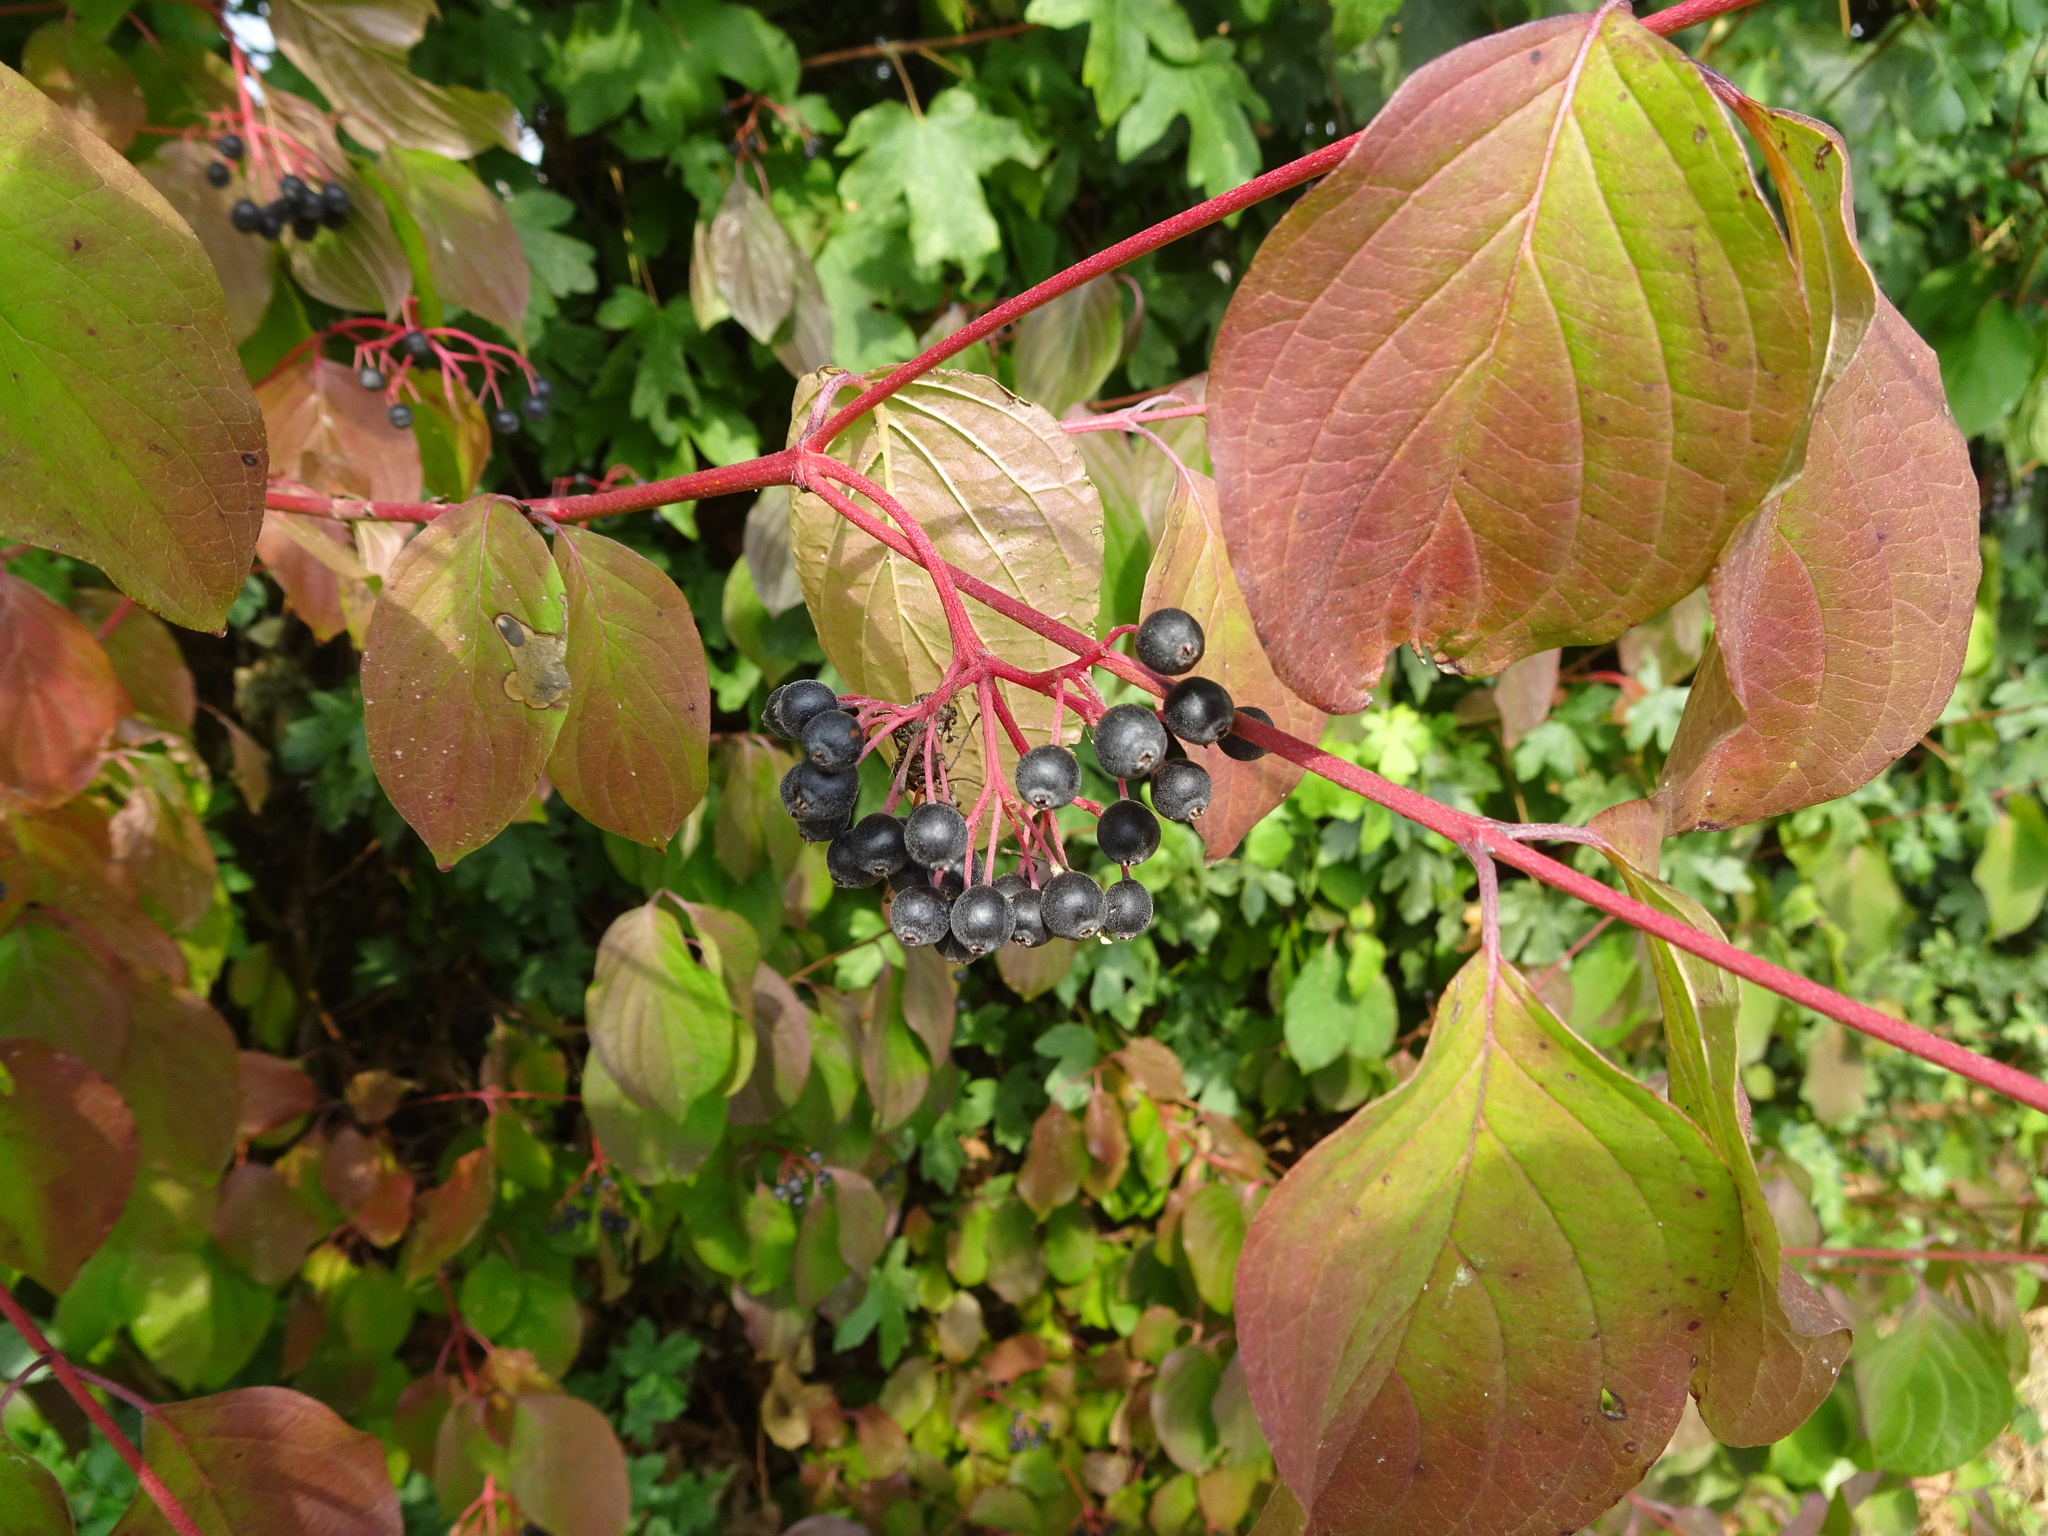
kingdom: Plantae
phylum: Tracheophyta
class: Magnoliopsida
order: Cornales
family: Cornaceae
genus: Cornus
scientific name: Cornus sanguinea
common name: Dogwood
